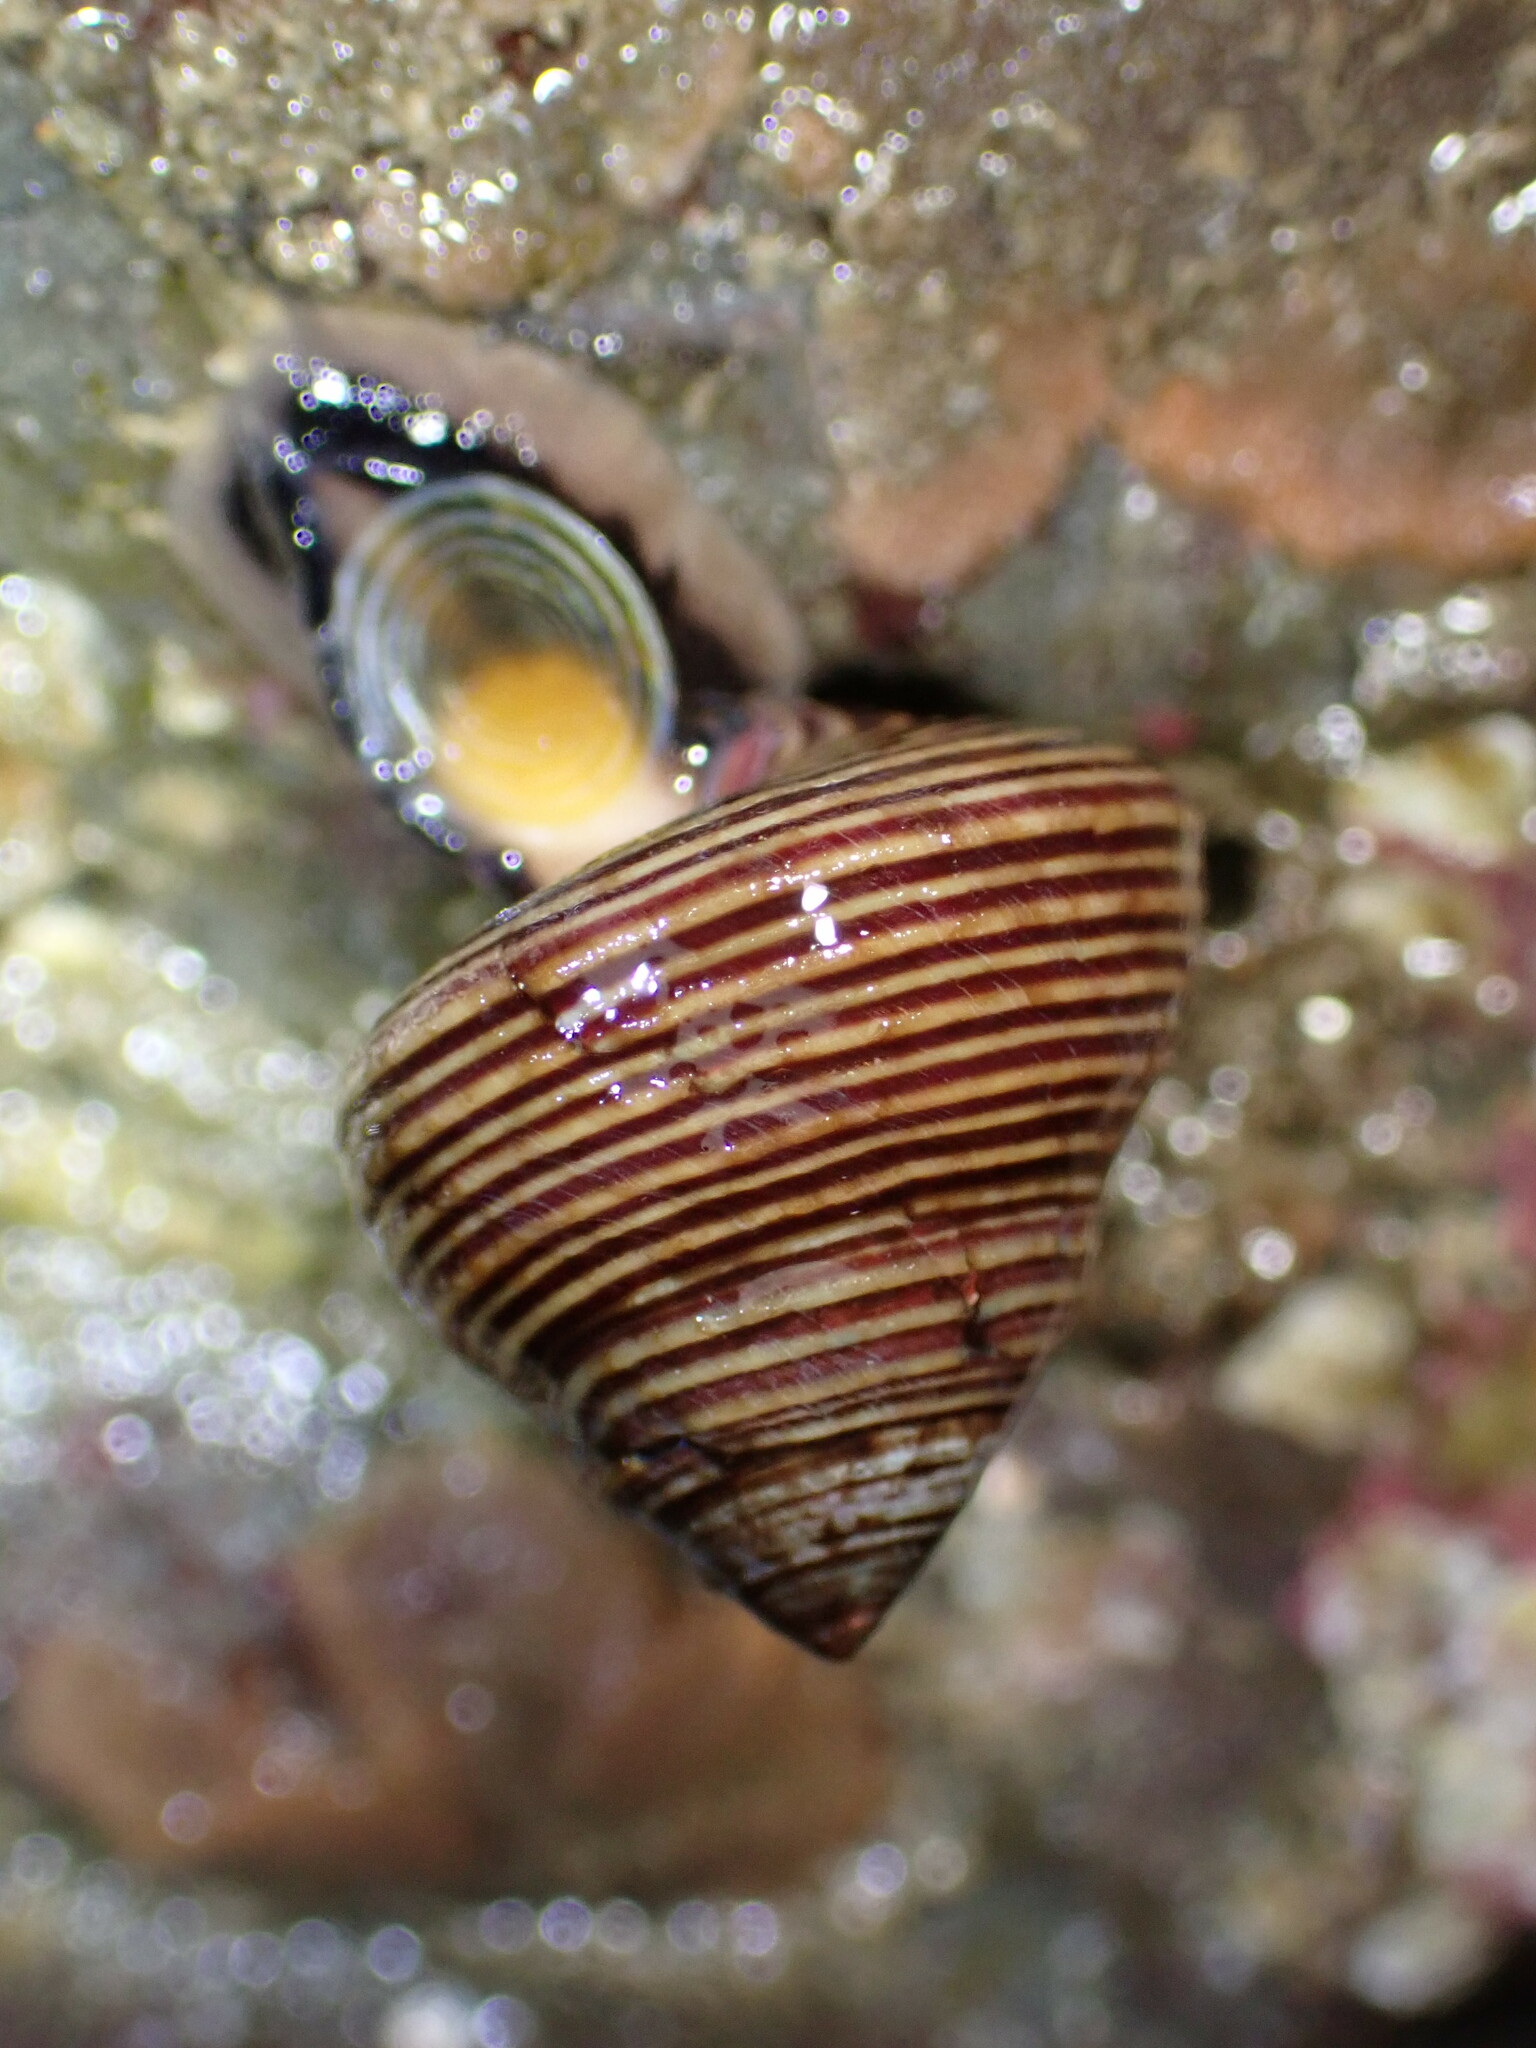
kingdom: Animalia
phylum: Mollusca
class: Gastropoda
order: Trochida
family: Calliostomatidae
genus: Calliostoma
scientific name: Calliostoma ligatum
